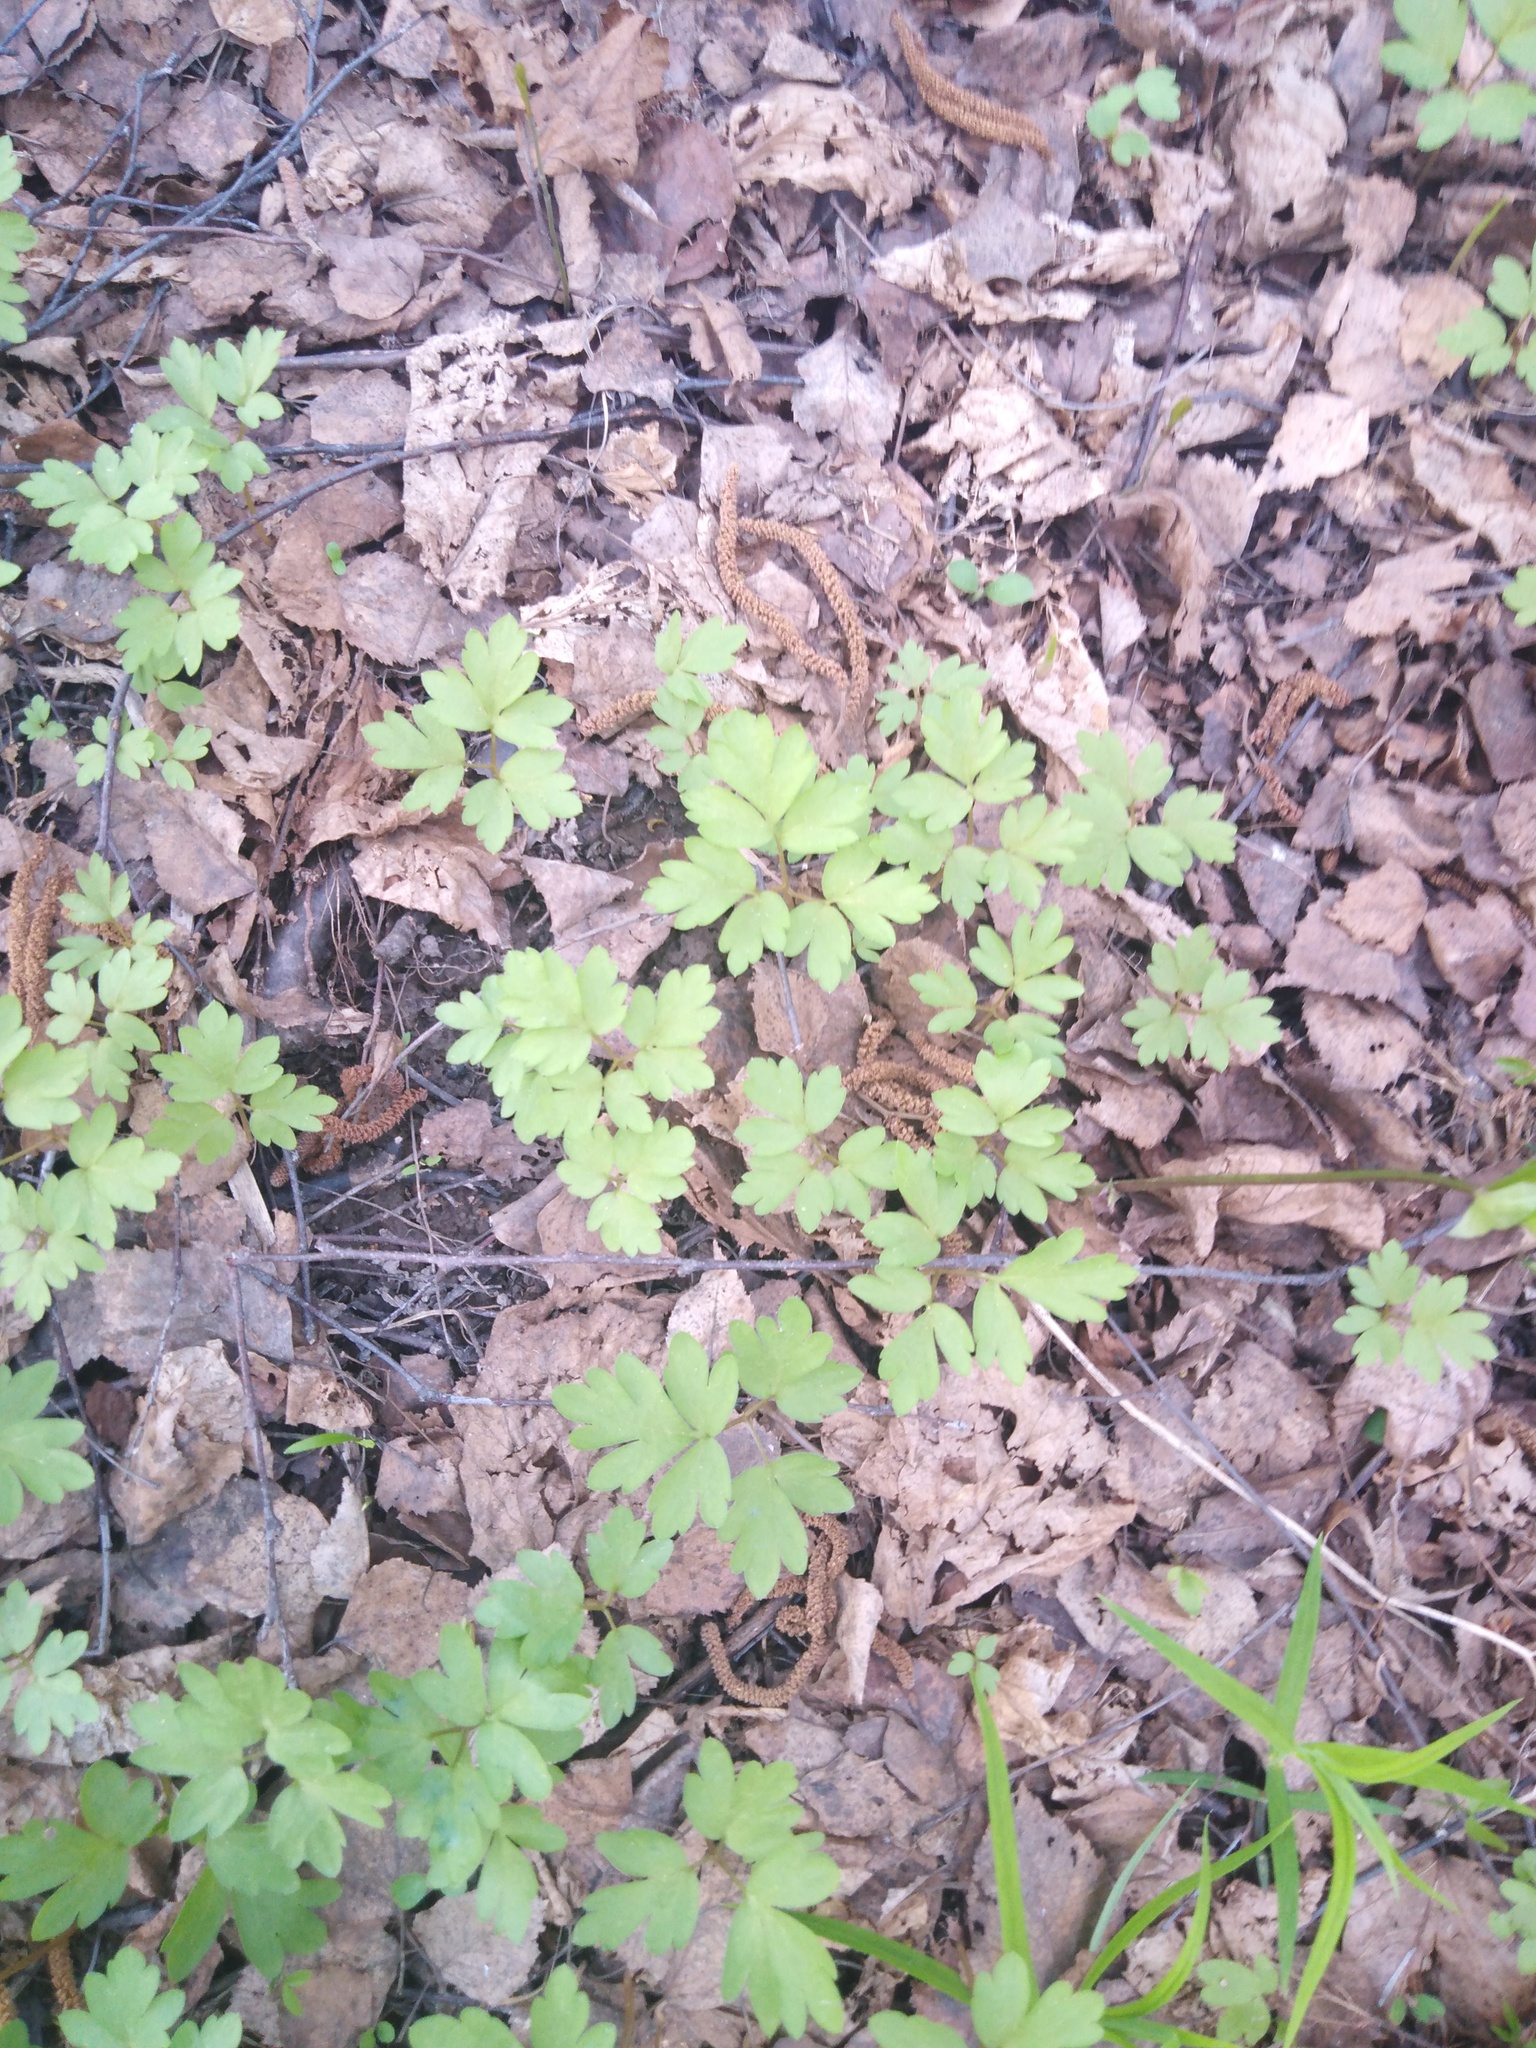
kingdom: Plantae
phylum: Tracheophyta
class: Magnoliopsida
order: Dipsacales
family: Viburnaceae
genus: Adoxa
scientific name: Adoxa moschatellina
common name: Moschatel
